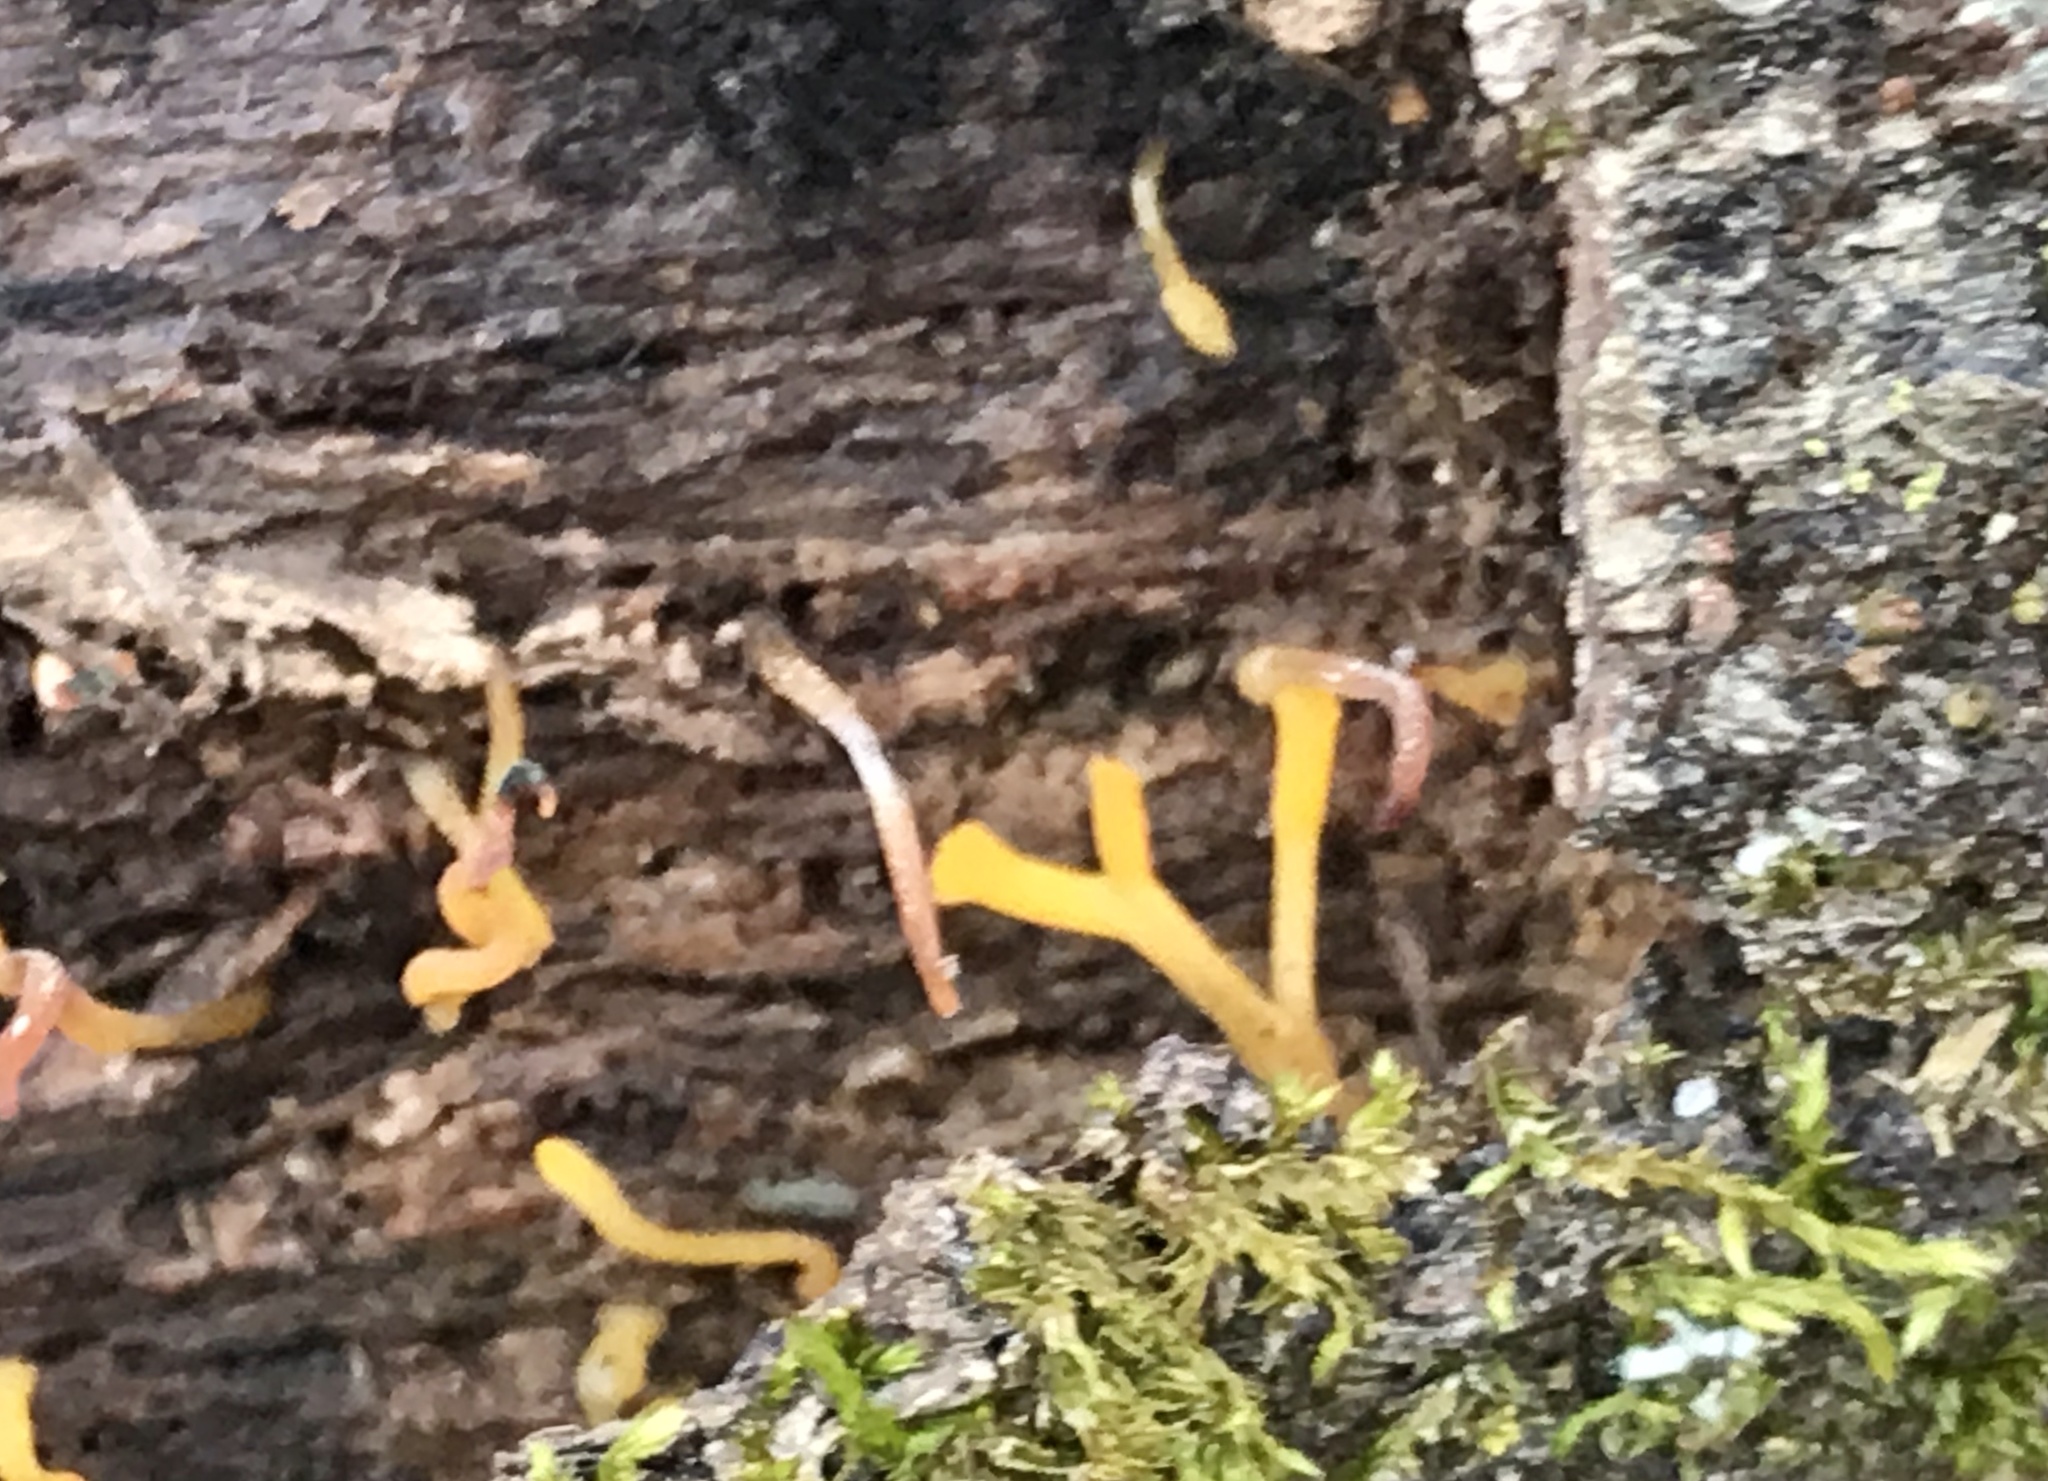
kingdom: Fungi
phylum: Basidiomycota
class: Dacrymycetes
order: Dacrymycetales
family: Dacrymycetaceae
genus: Calocera
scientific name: Calocera cornea
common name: Small stagshorn
